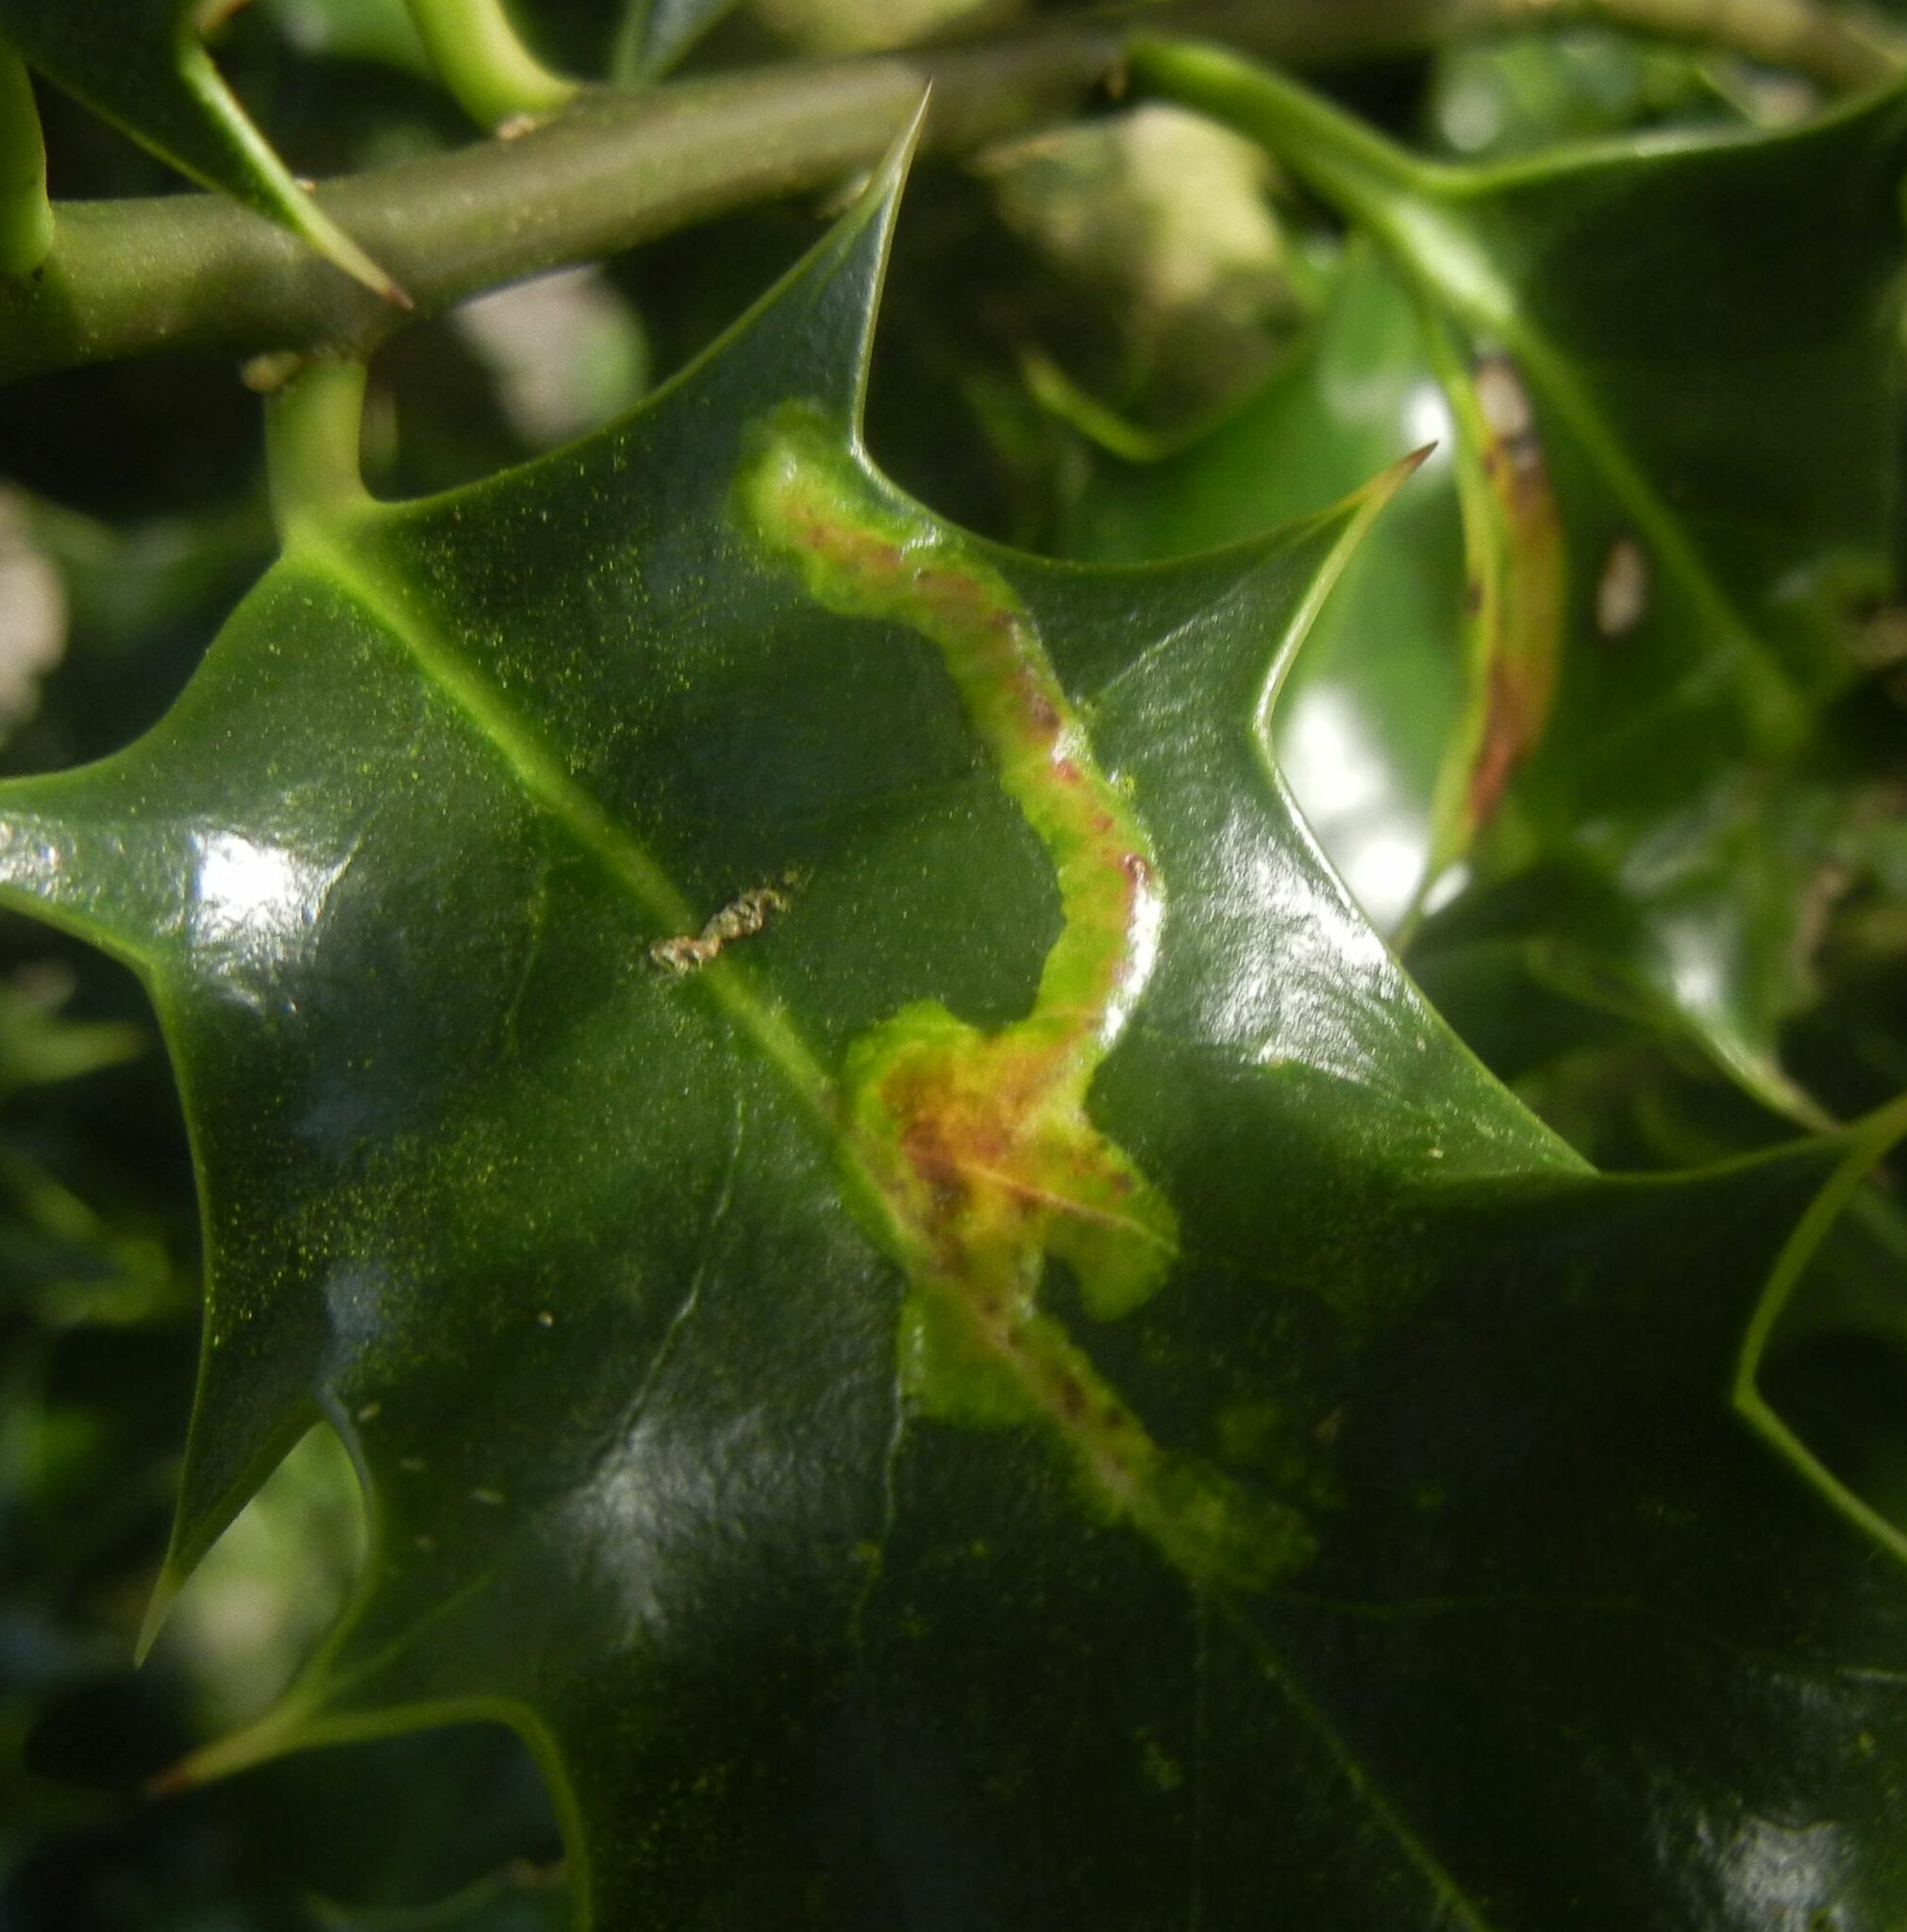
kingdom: Animalia
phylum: Arthropoda
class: Insecta
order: Diptera
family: Agromyzidae
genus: Phytomyza
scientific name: Phytomyza ilicis
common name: Holly leafminer
